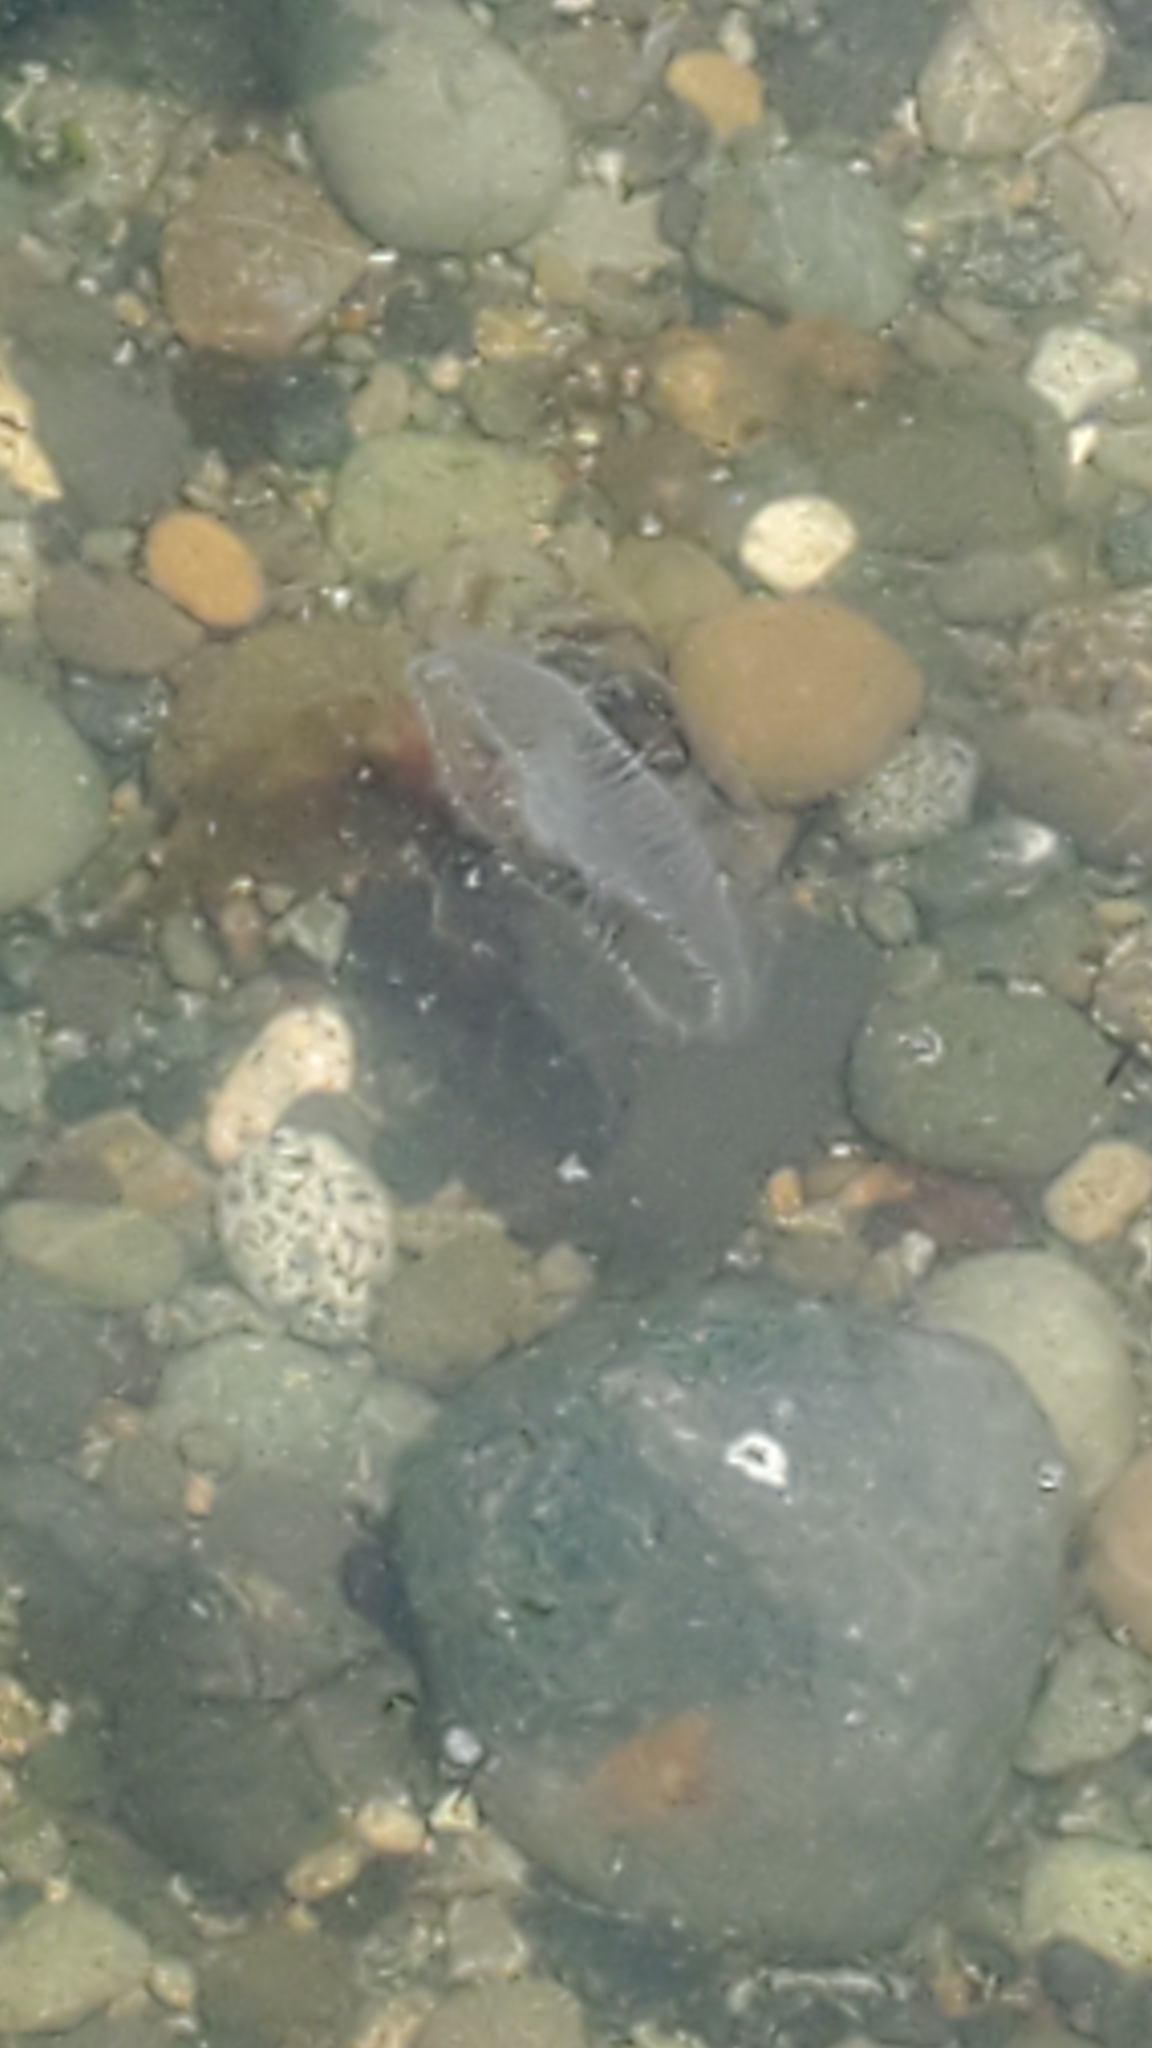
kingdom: Animalia
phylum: Cnidaria
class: Hydrozoa
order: Leptothecata
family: Aequoreidae
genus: Aequorea
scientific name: Aequorea victoria
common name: Water jellyfish
